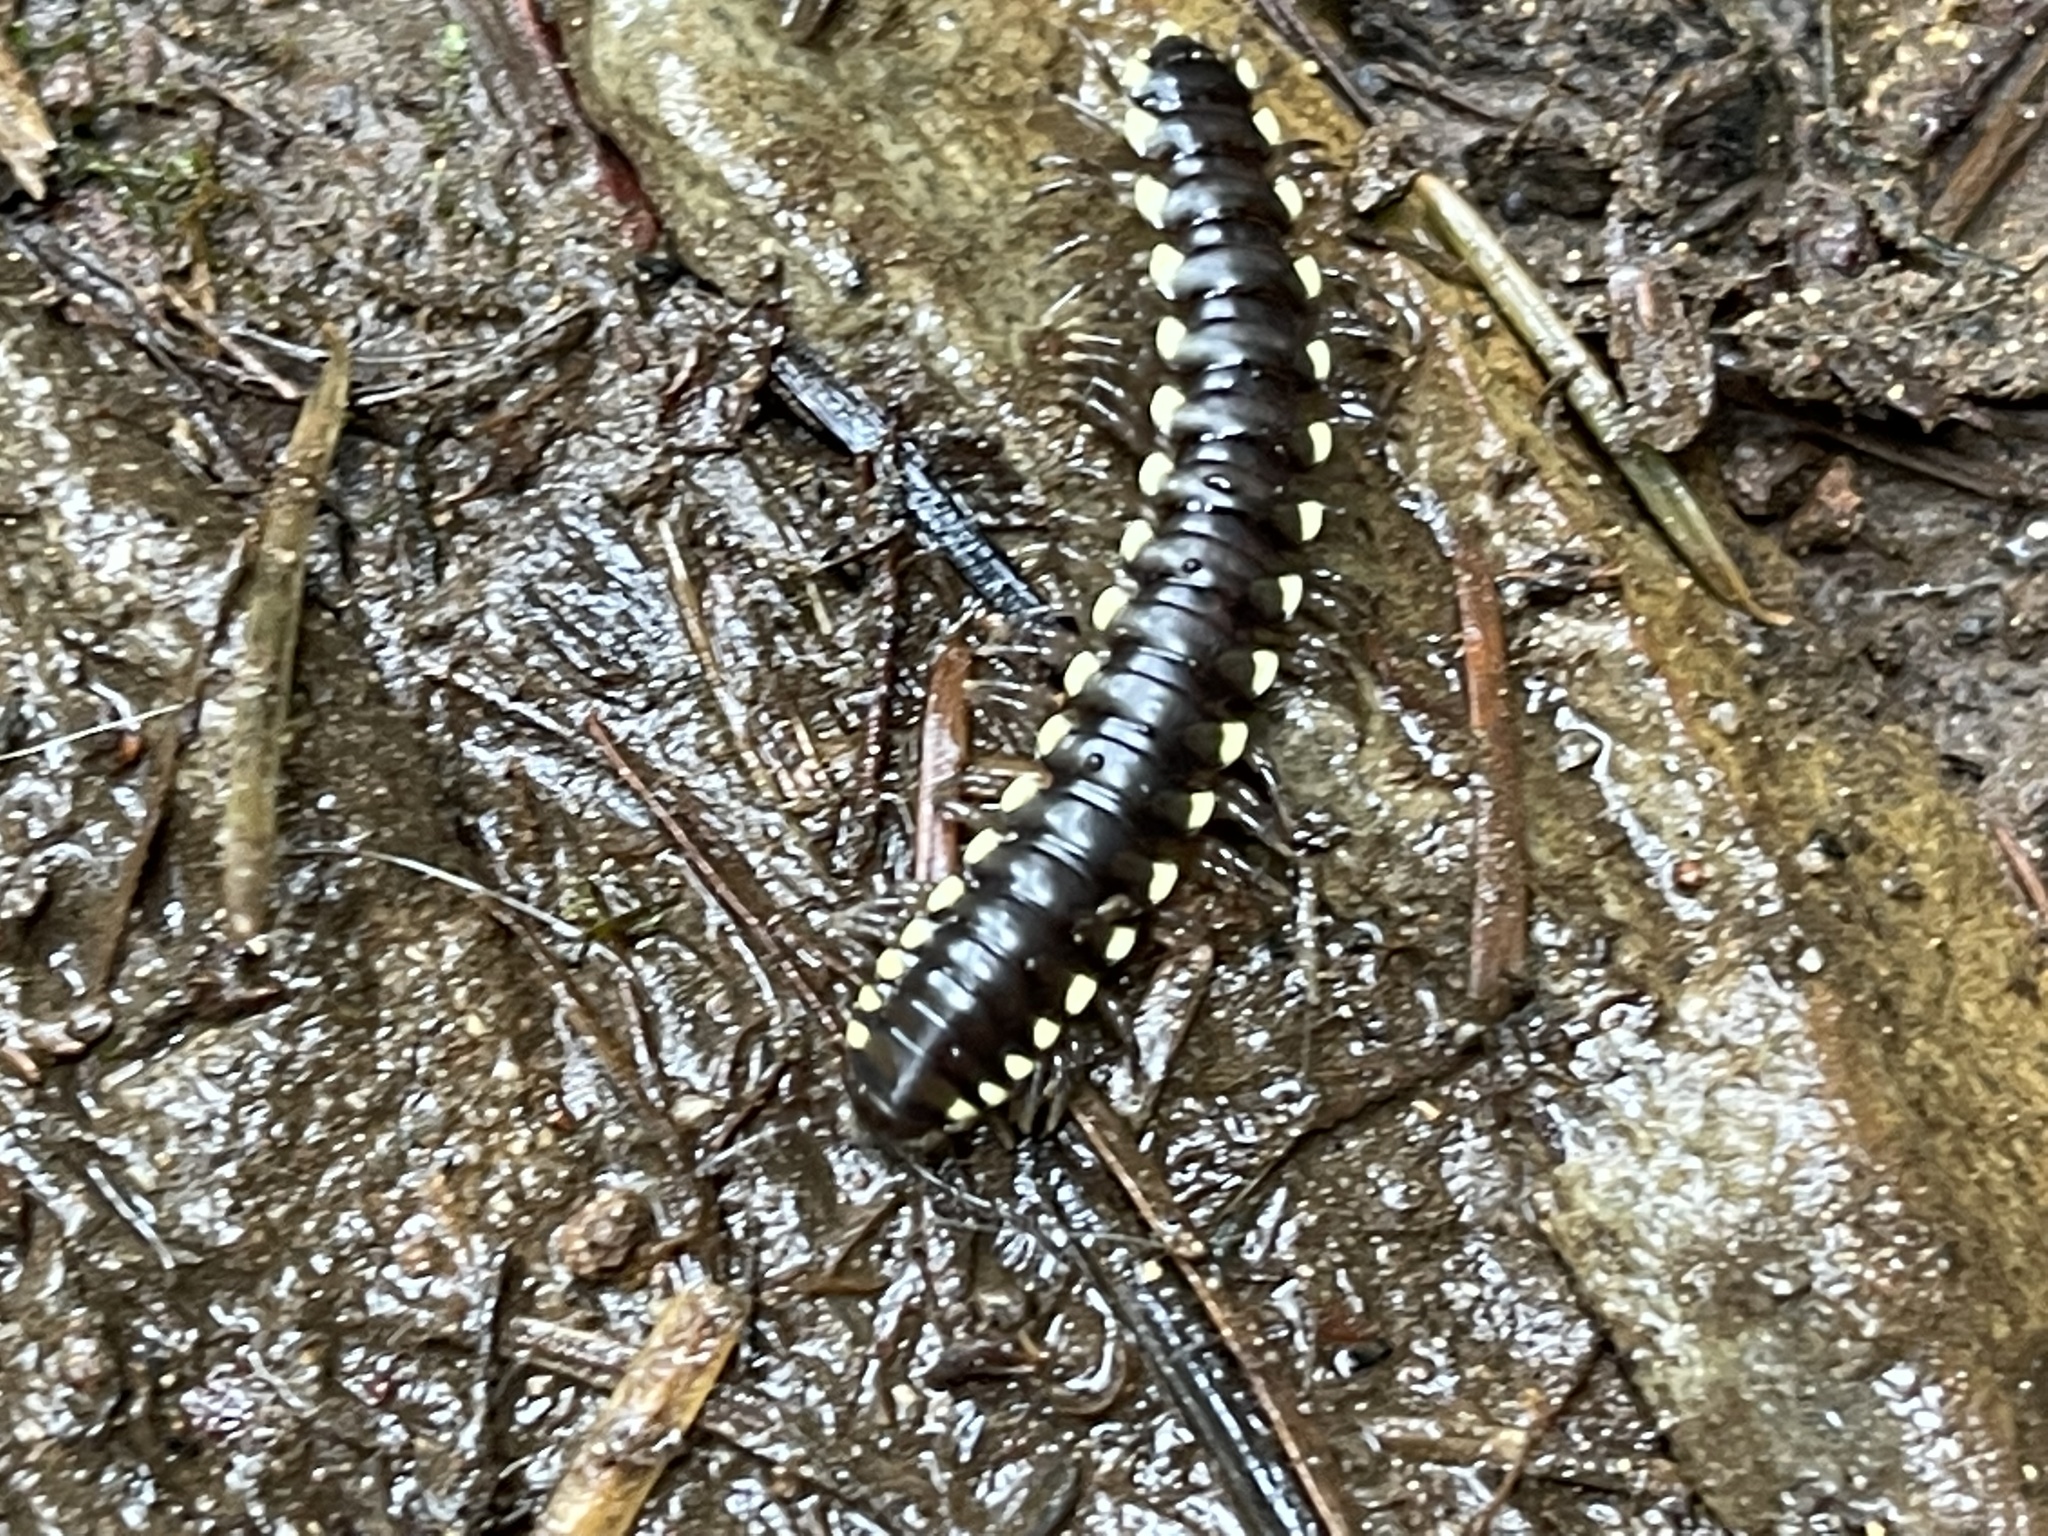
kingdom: Animalia
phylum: Arthropoda
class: Diplopoda
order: Polydesmida
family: Xystodesmidae
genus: Harpaphe
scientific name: Harpaphe haydeniana
